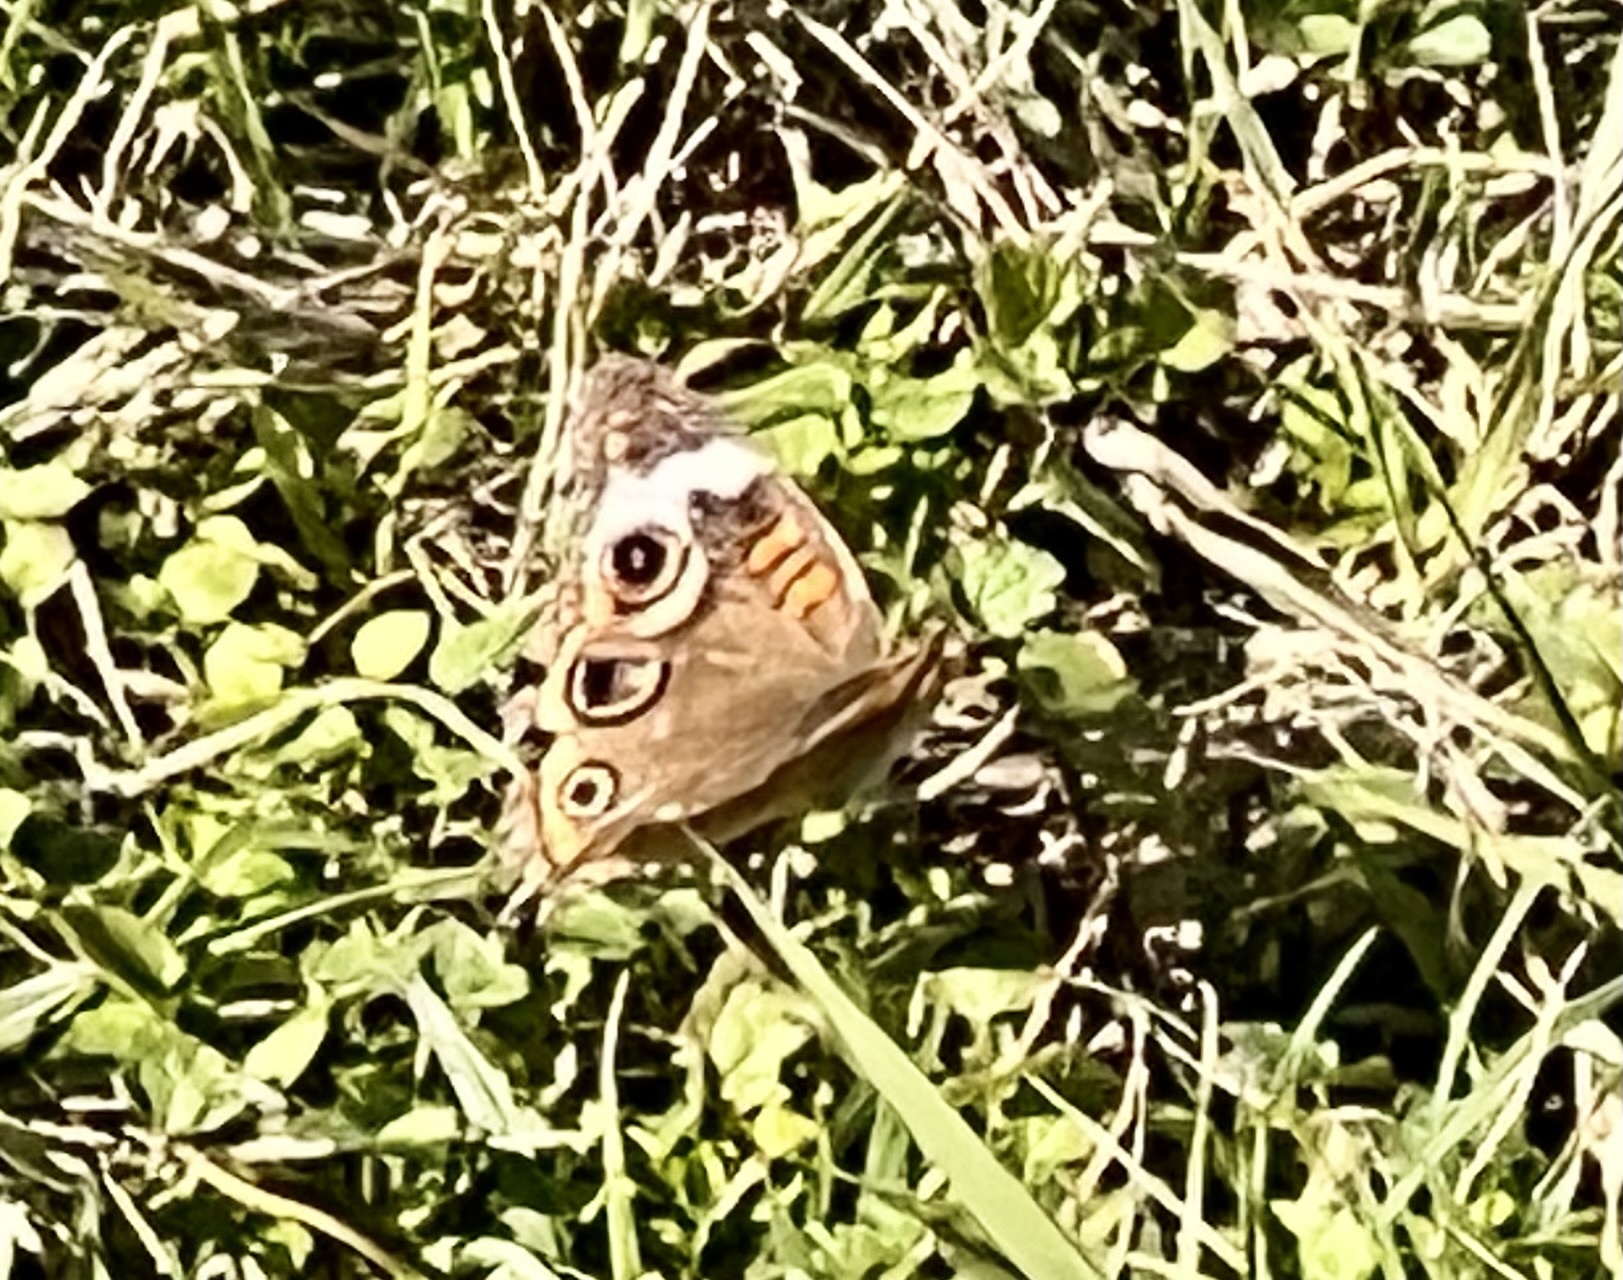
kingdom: Animalia
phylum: Arthropoda
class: Insecta
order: Lepidoptera
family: Nymphalidae
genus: Junonia
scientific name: Junonia coenia
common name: Common buckeye
